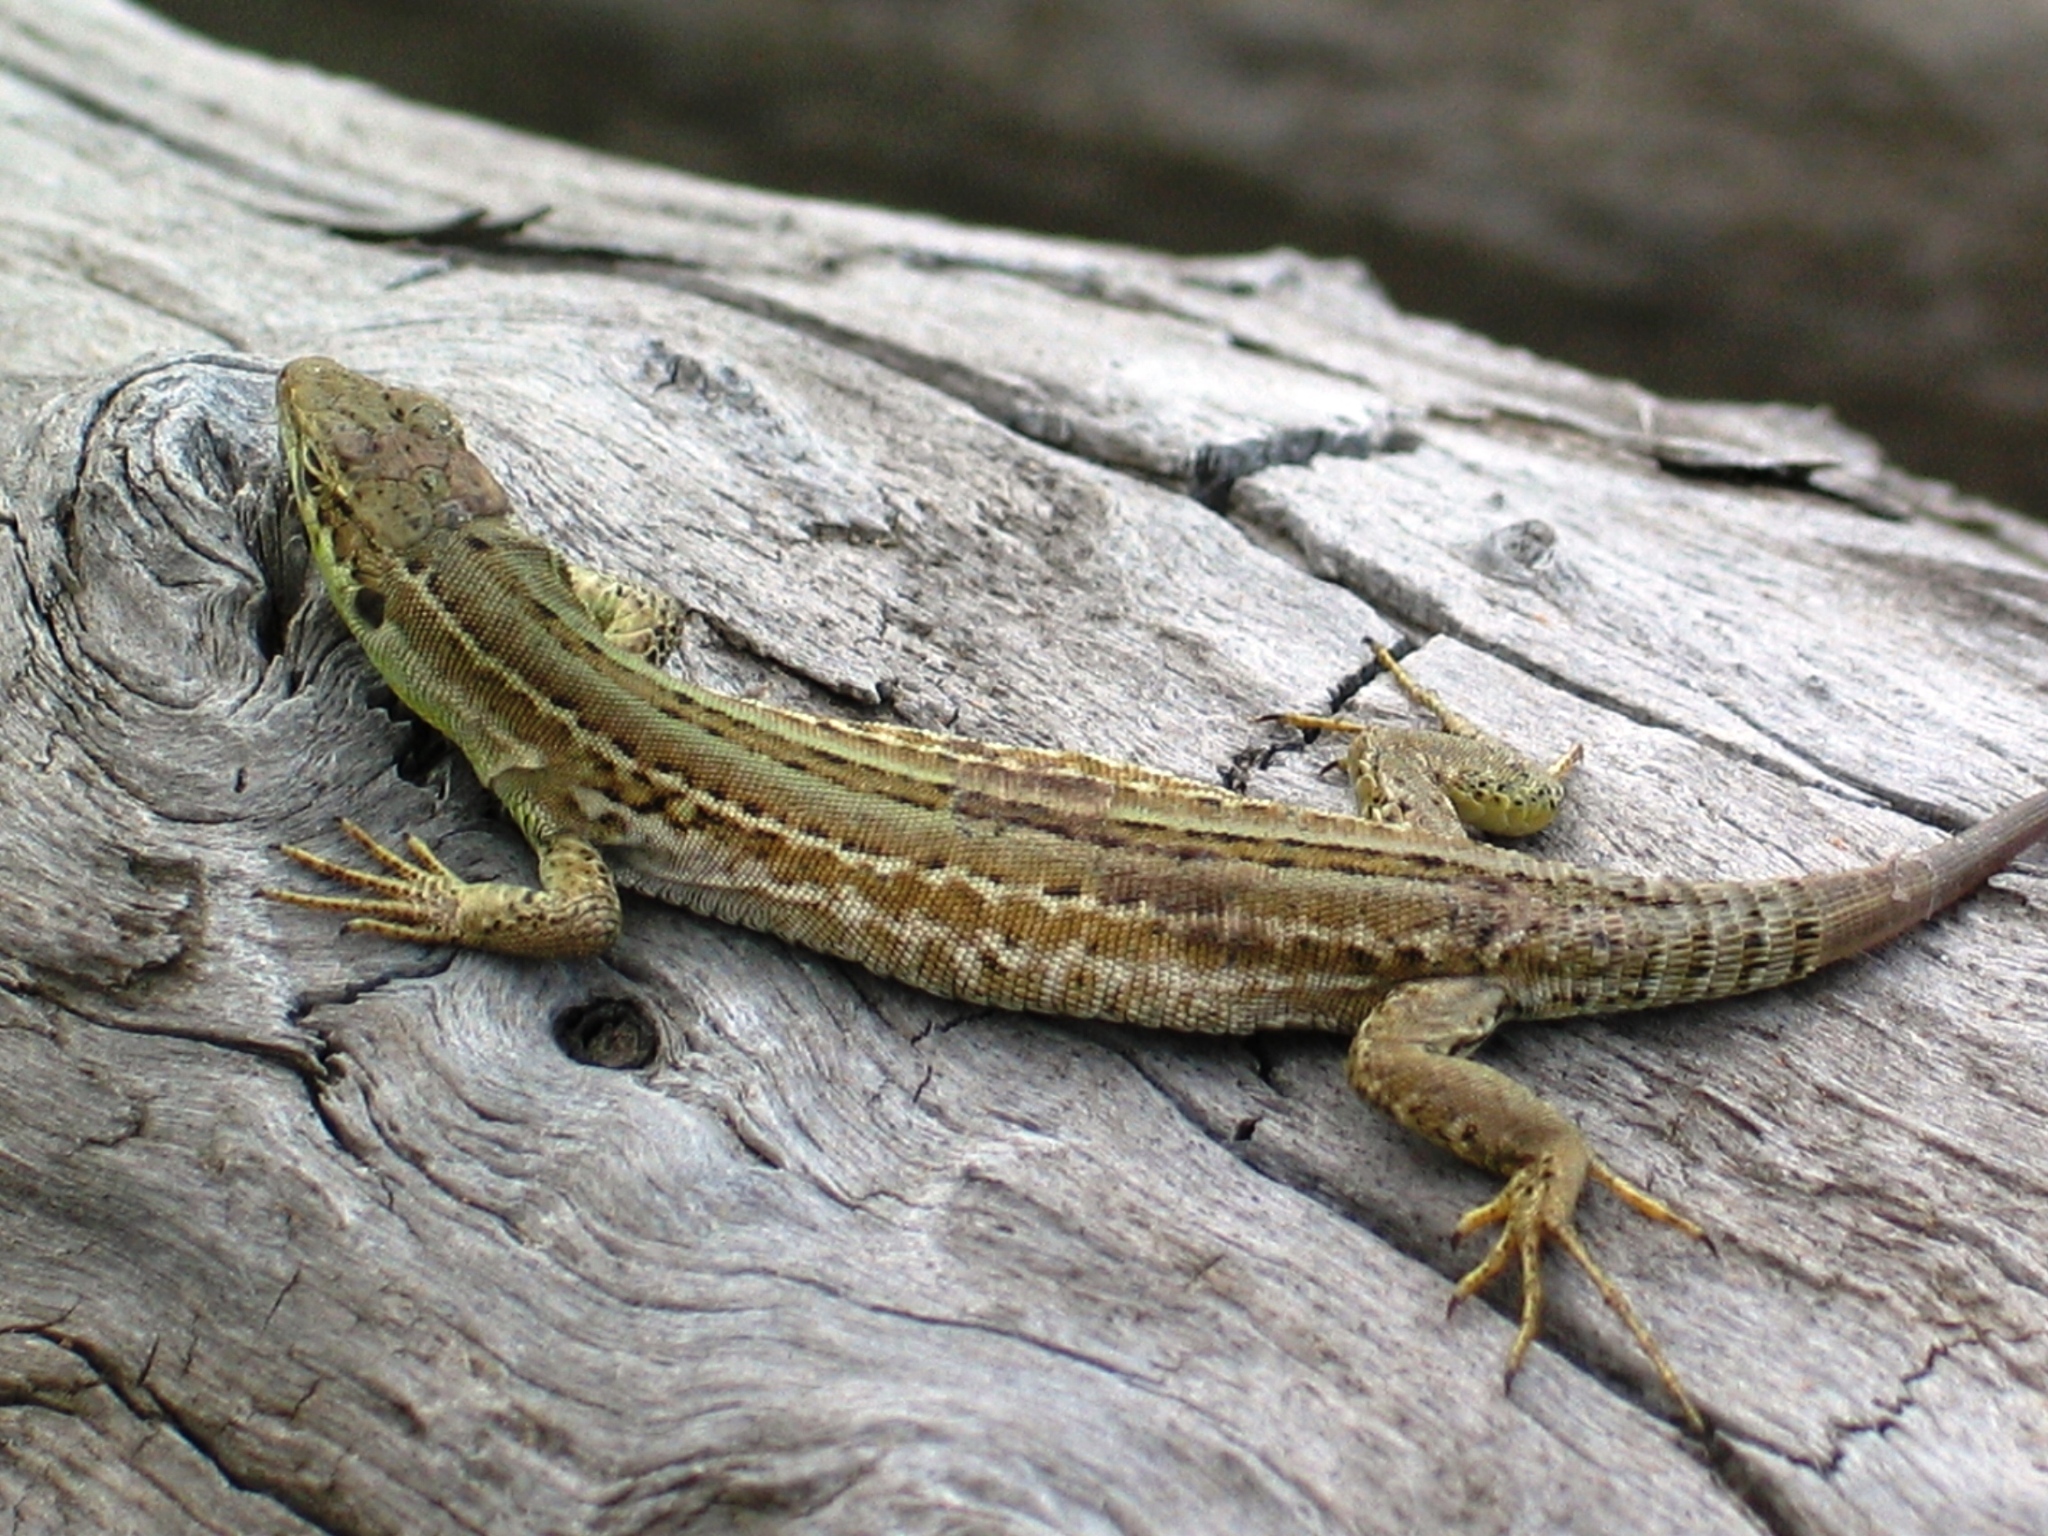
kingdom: Animalia
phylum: Chordata
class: Squamata
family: Lacertidae
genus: Podarcis
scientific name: Podarcis siculus
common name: Italian wall lizard
